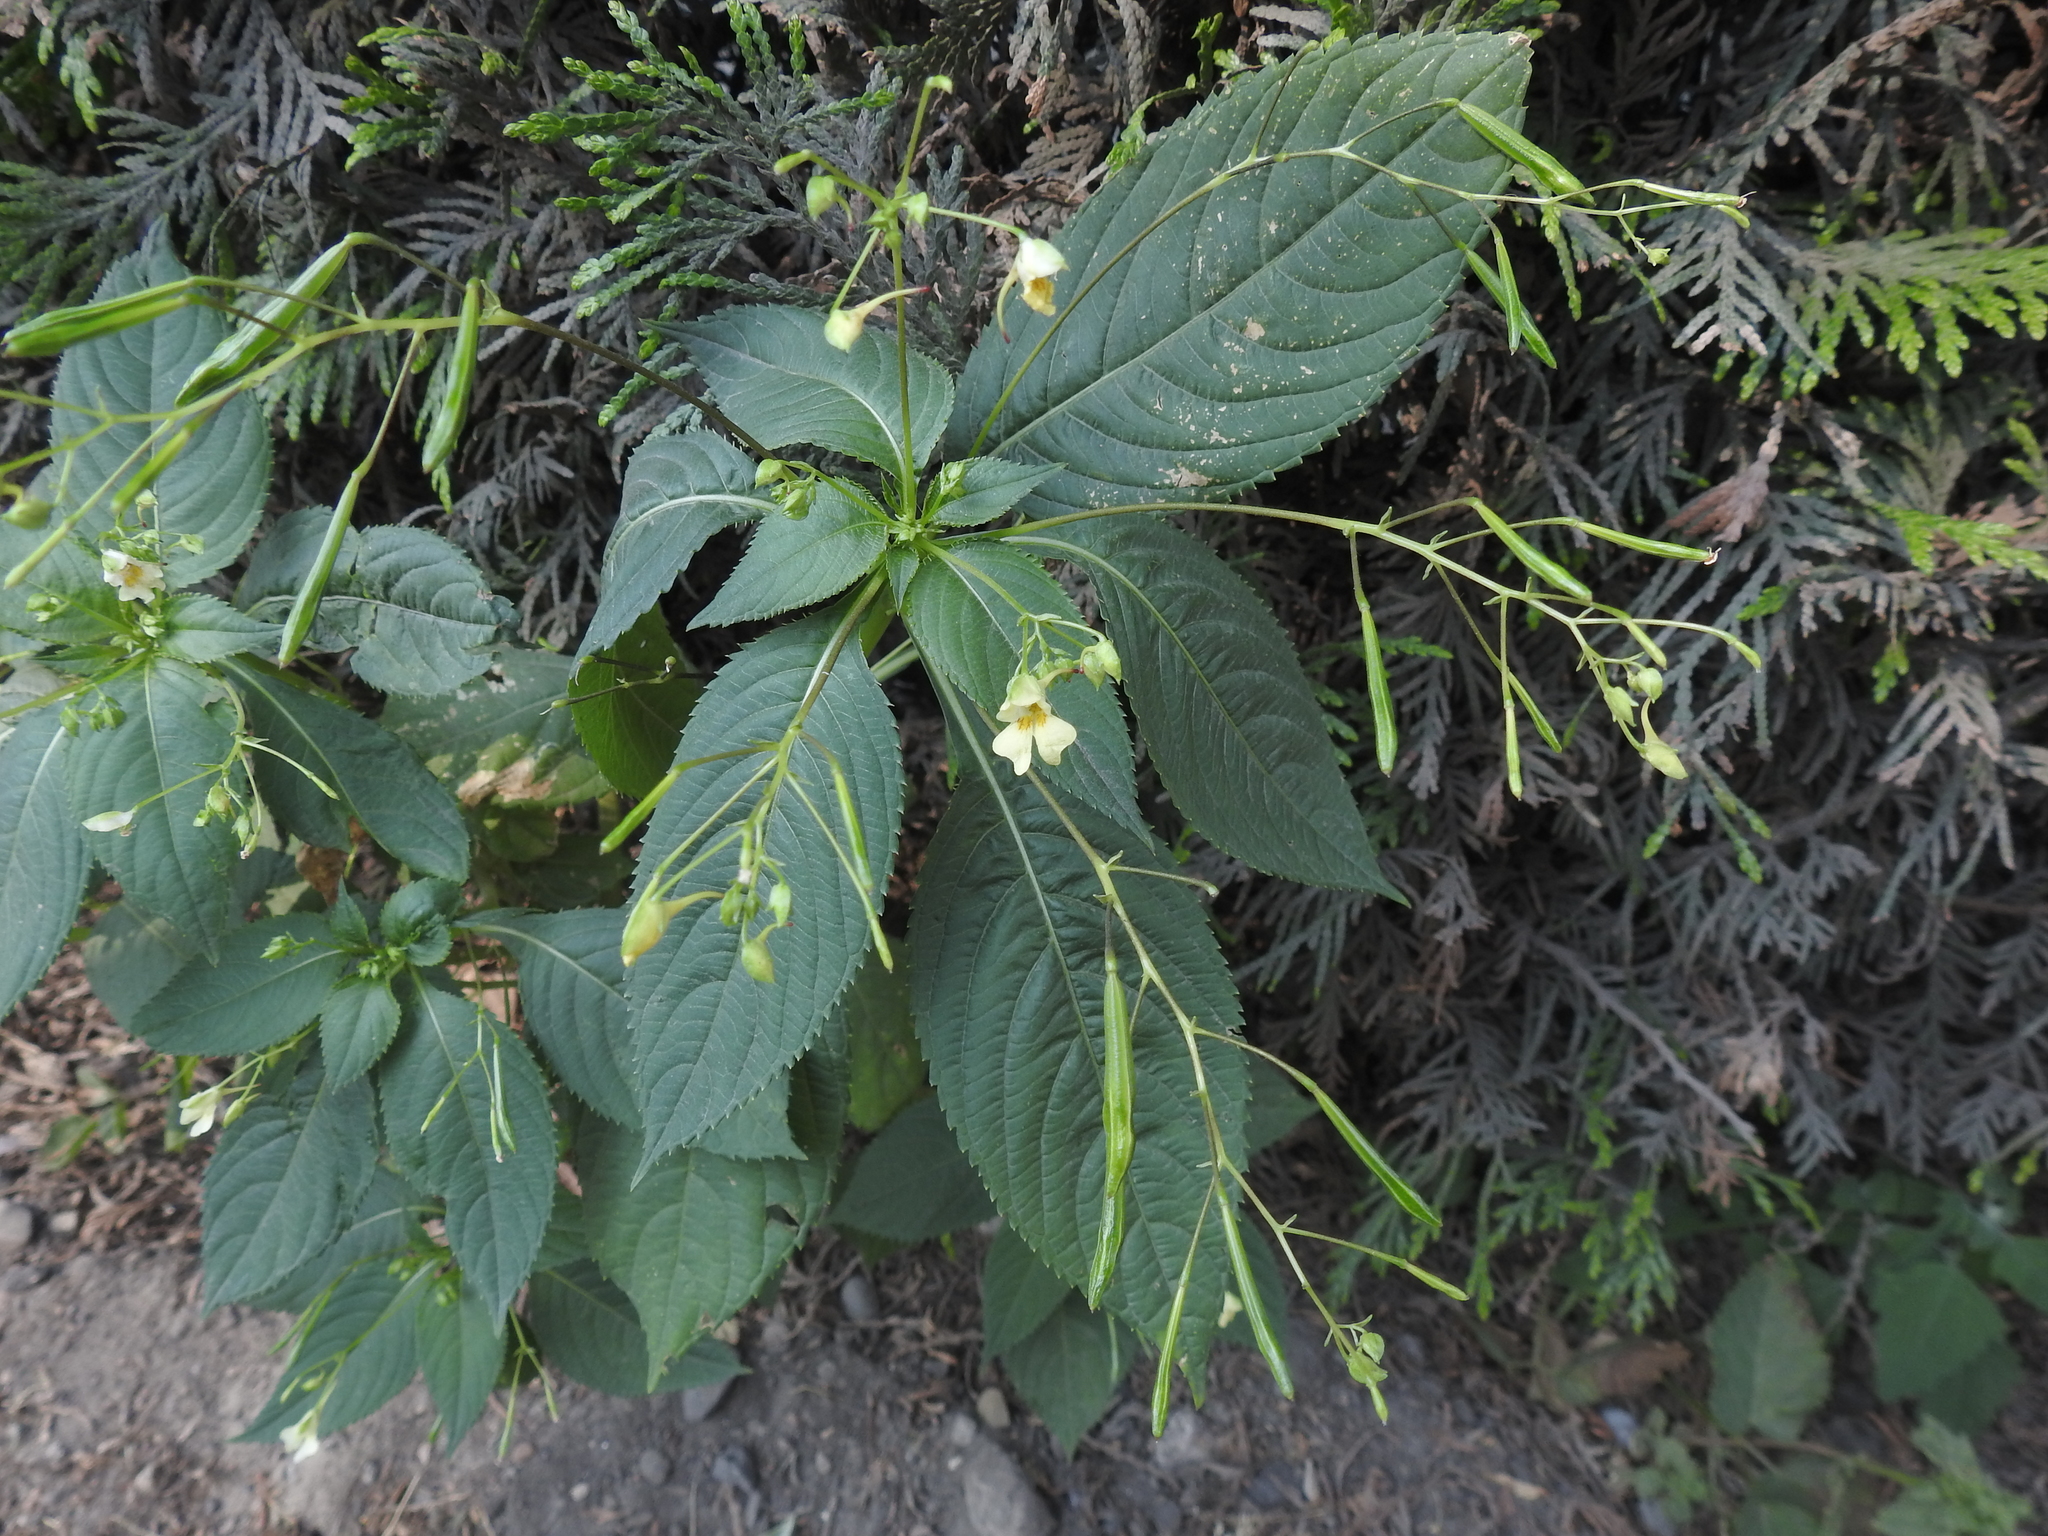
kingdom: Plantae
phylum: Tracheophyta
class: Magnoliopsida
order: Ericales
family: Balsaminaceae
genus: Impatiens
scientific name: Impatiens parviflora
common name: Small balsam
